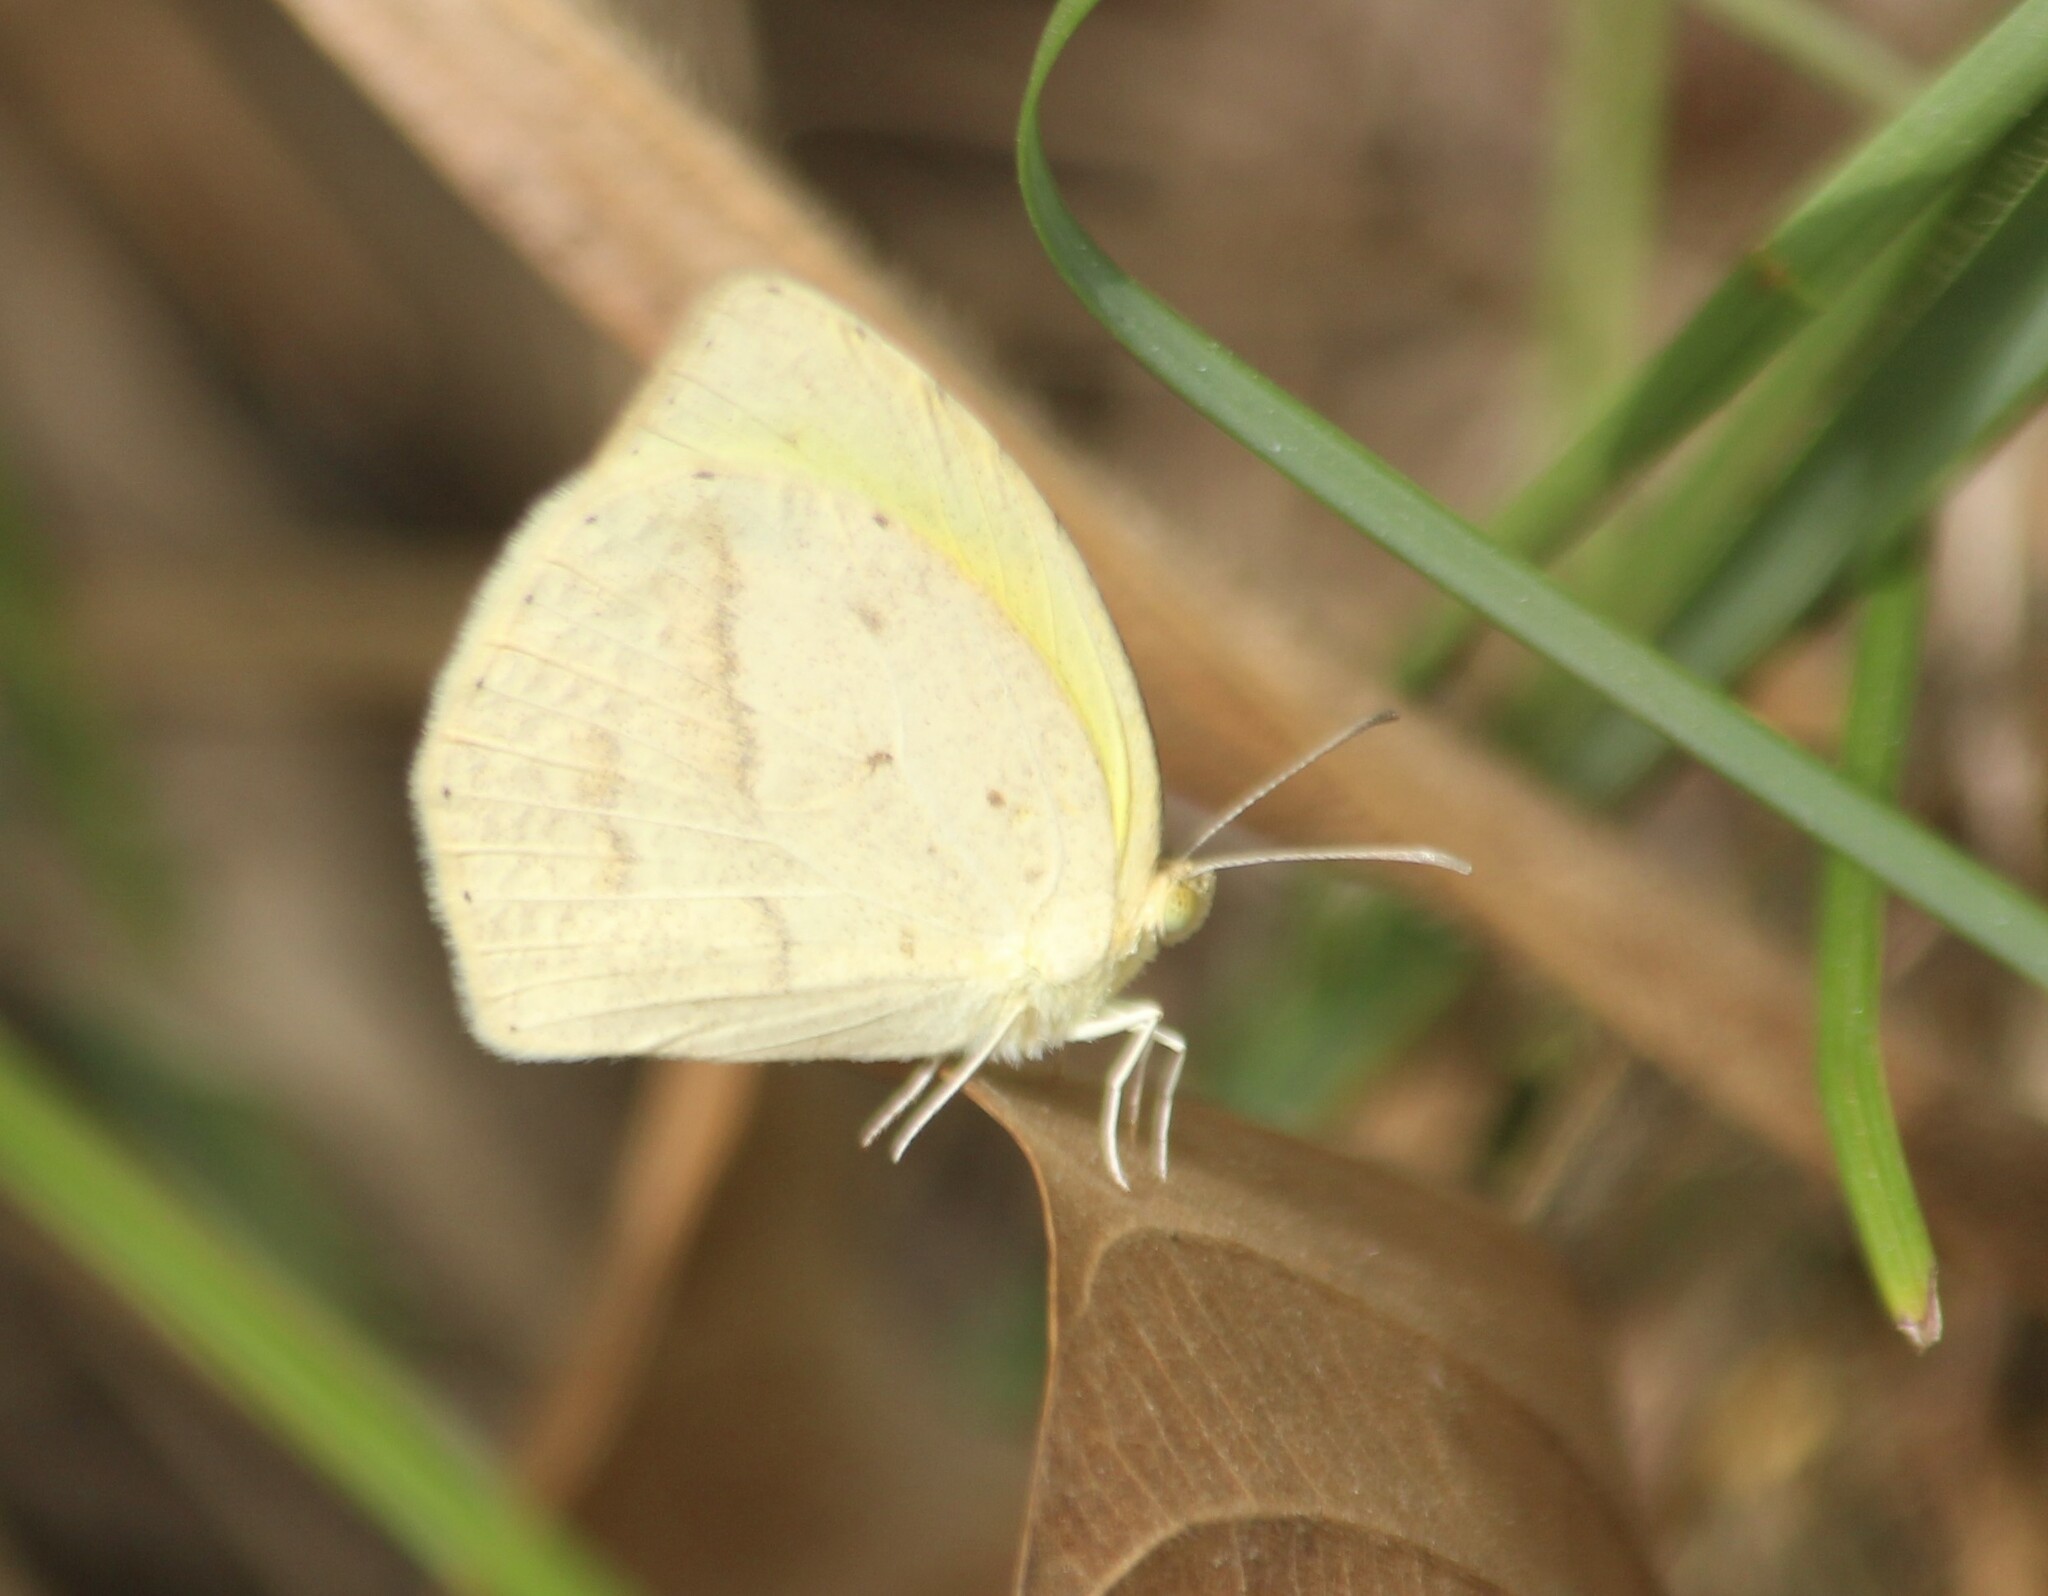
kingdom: Animalia
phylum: Arthropoda
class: Insecta
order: Lepidoptera
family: Pieridae
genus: Eurema
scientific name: Eurema laeta
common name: Spotless grass yellow
